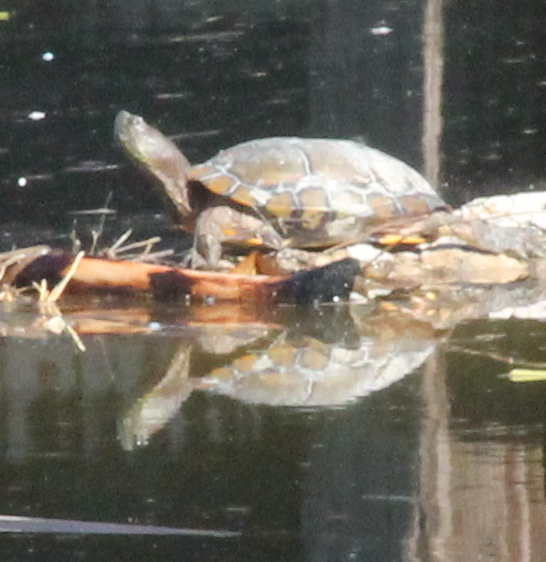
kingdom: Animalia
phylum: Chordata
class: Testudines
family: Emydidae
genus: Trachemys
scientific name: Trachemys scripta
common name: Slider
